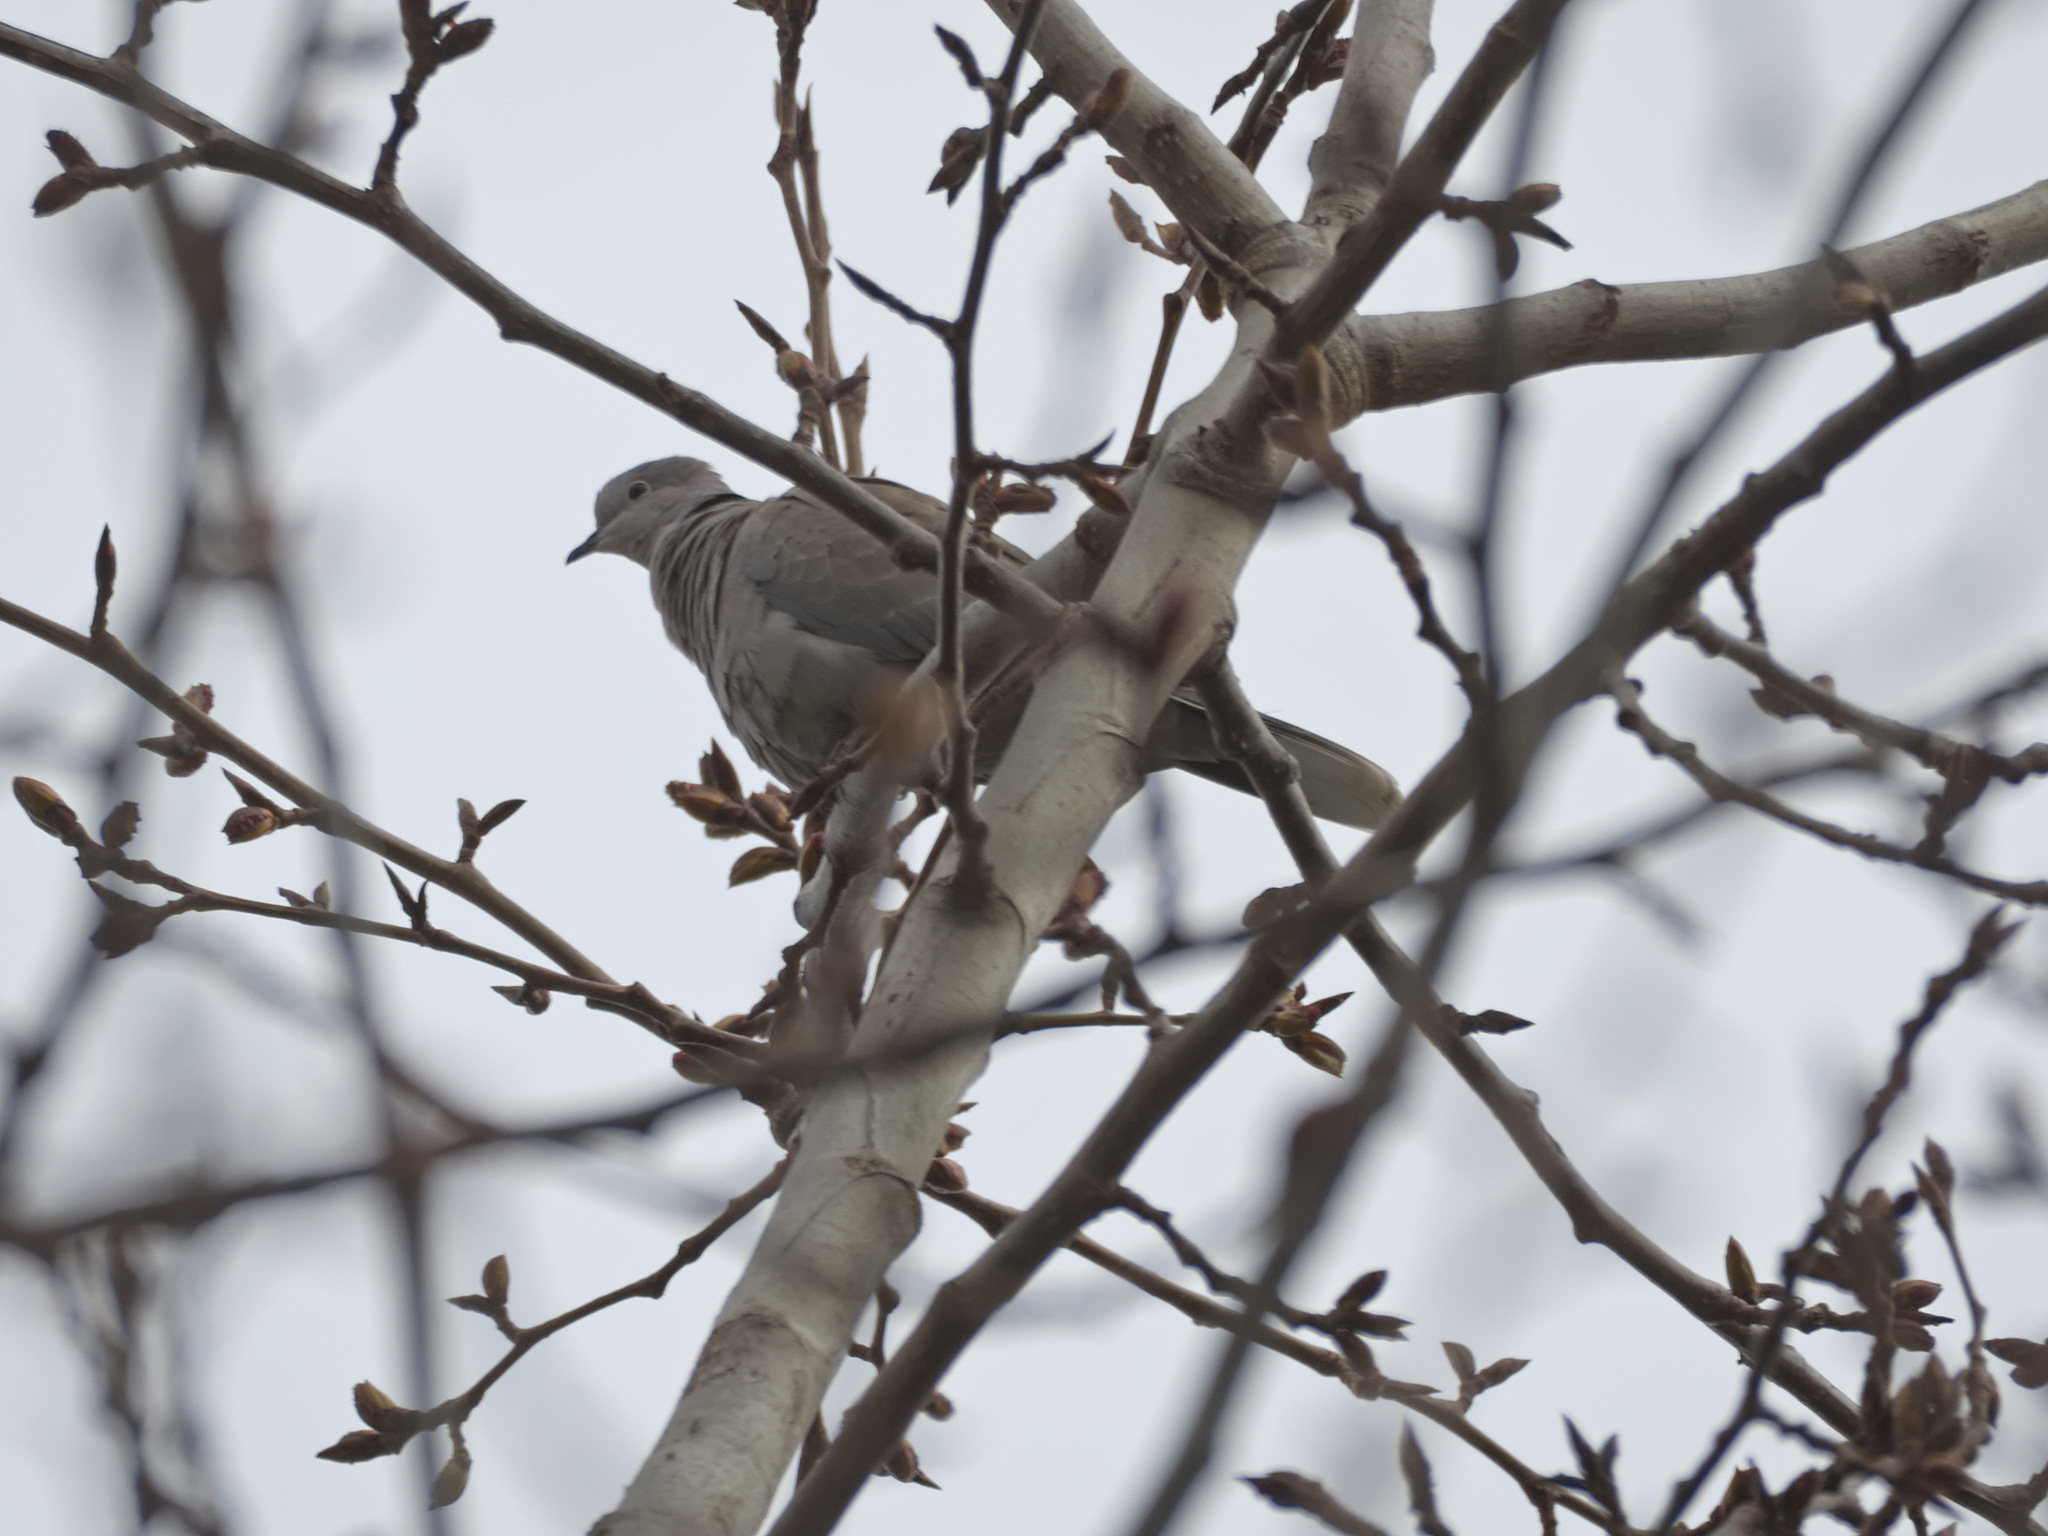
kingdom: Animalia
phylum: Chordata
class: Aves
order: Columbiformes
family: Columbidae
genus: Streptopelia
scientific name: Streptopelia decaocto
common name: Eurasian collared dove
